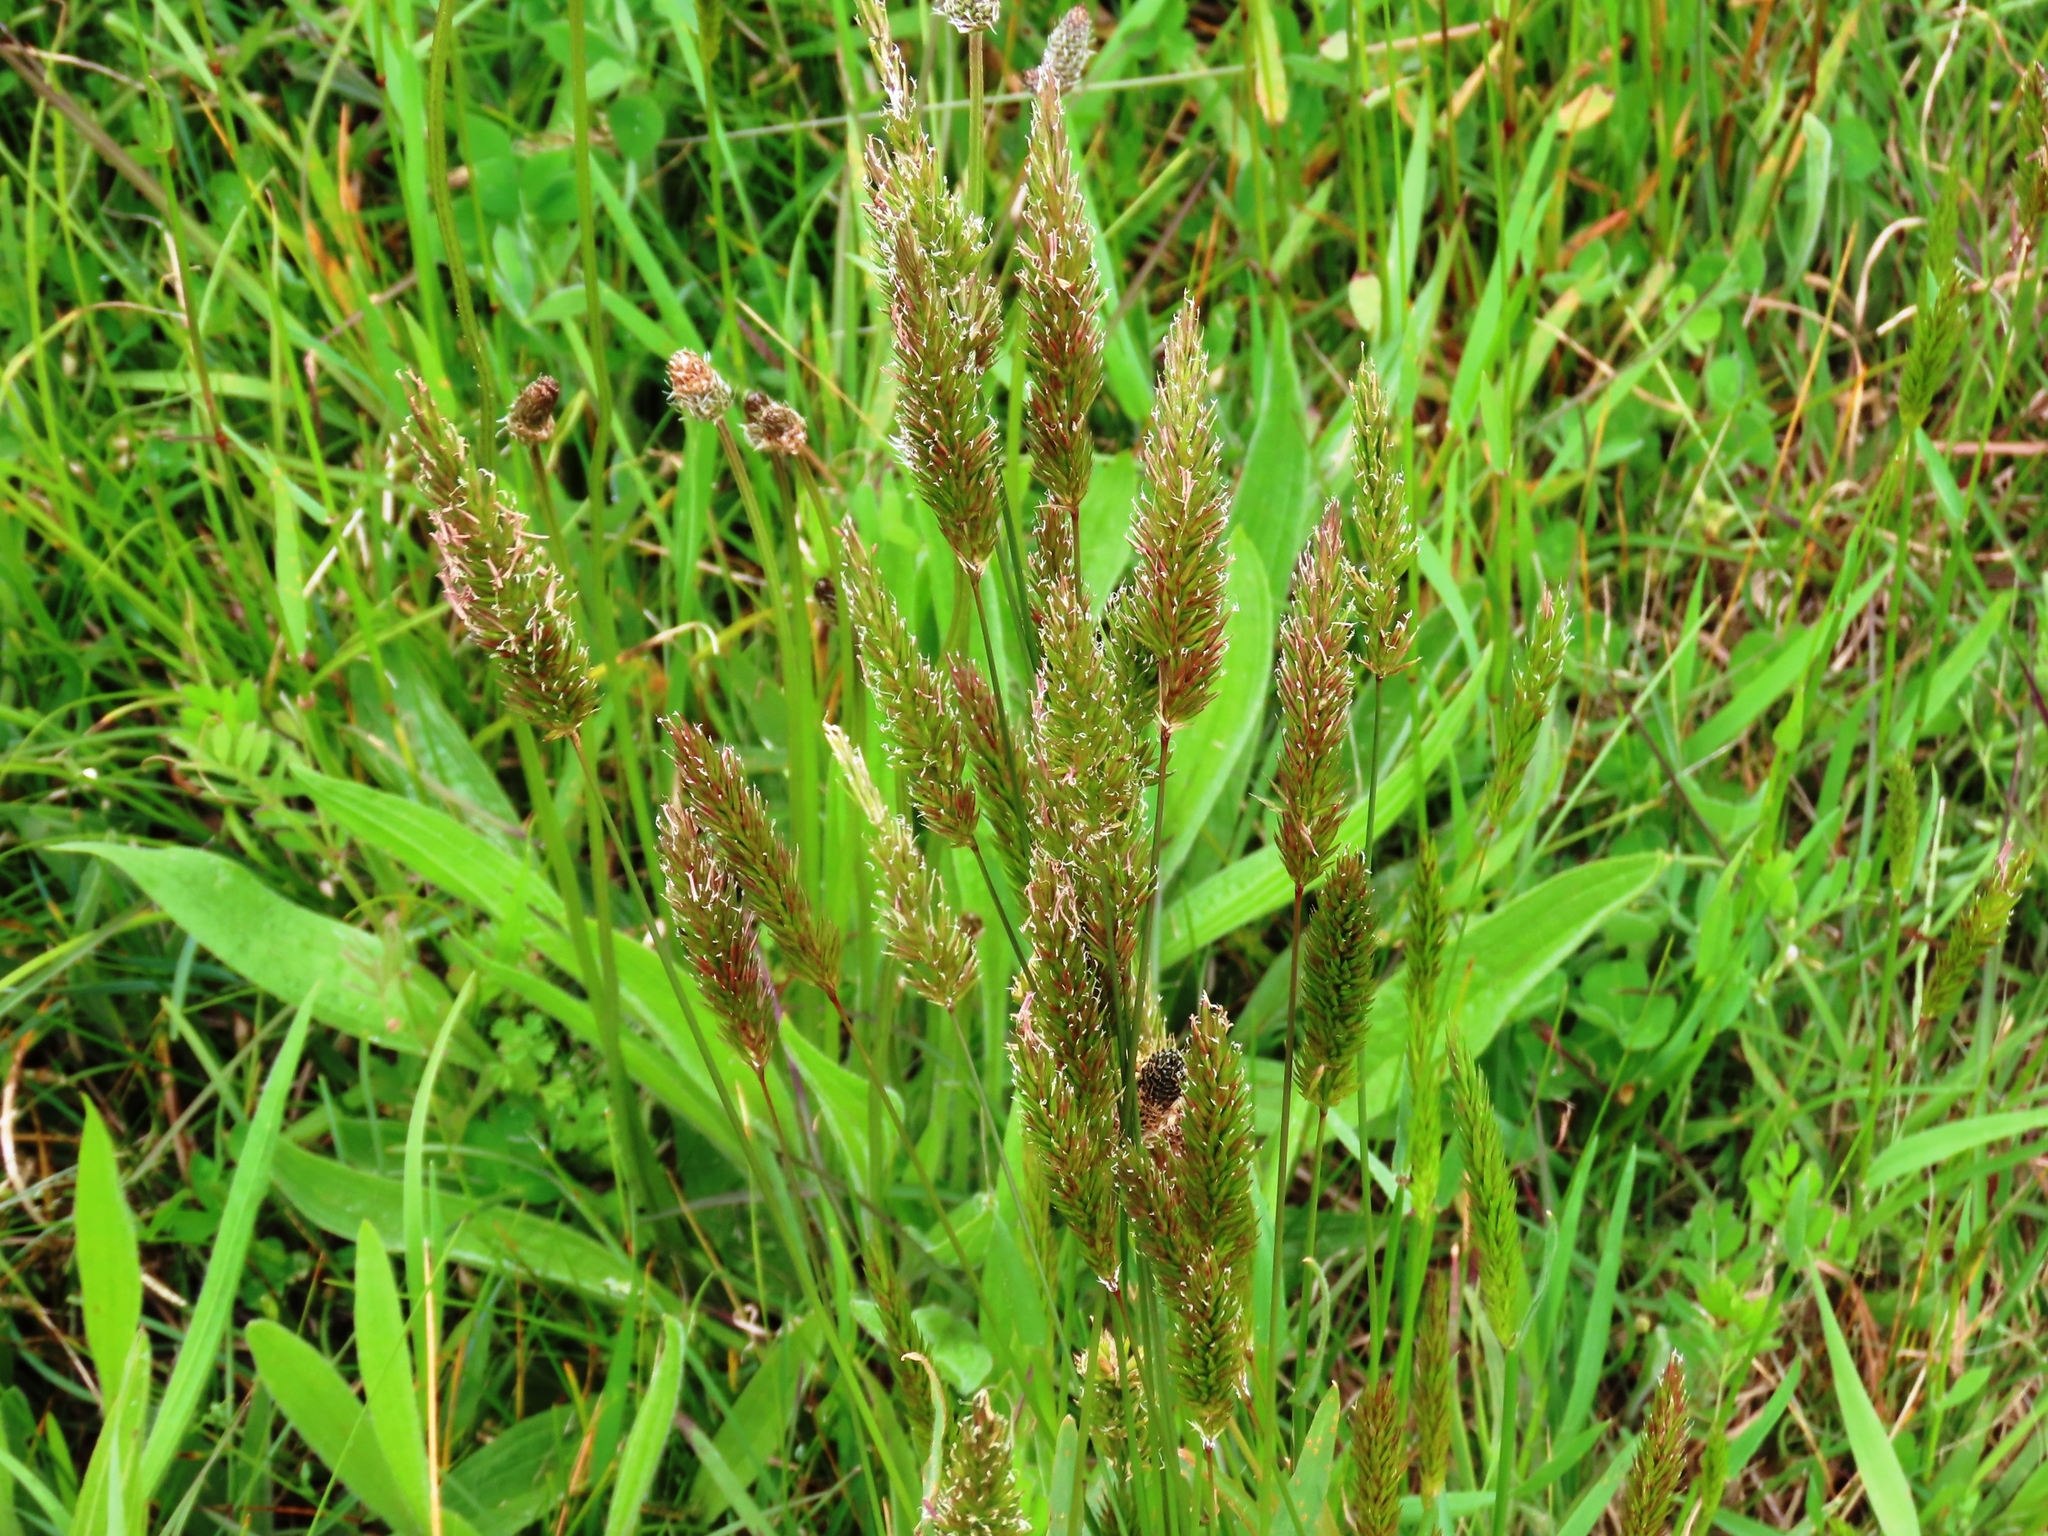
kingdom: Plantae
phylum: Tracheophyta
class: Liliopsida
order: Poales
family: Poaceae
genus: Anthoxanthum
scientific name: Anthoxanthum odoratum
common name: Sweet vernalgrass
